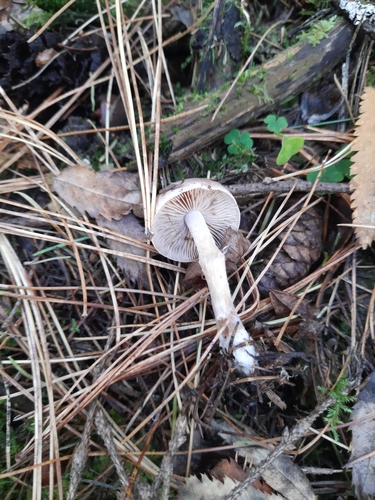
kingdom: Fungi
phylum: Basidiomycota
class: Agaricomycetes
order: Agaricales
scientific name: Agaricales
